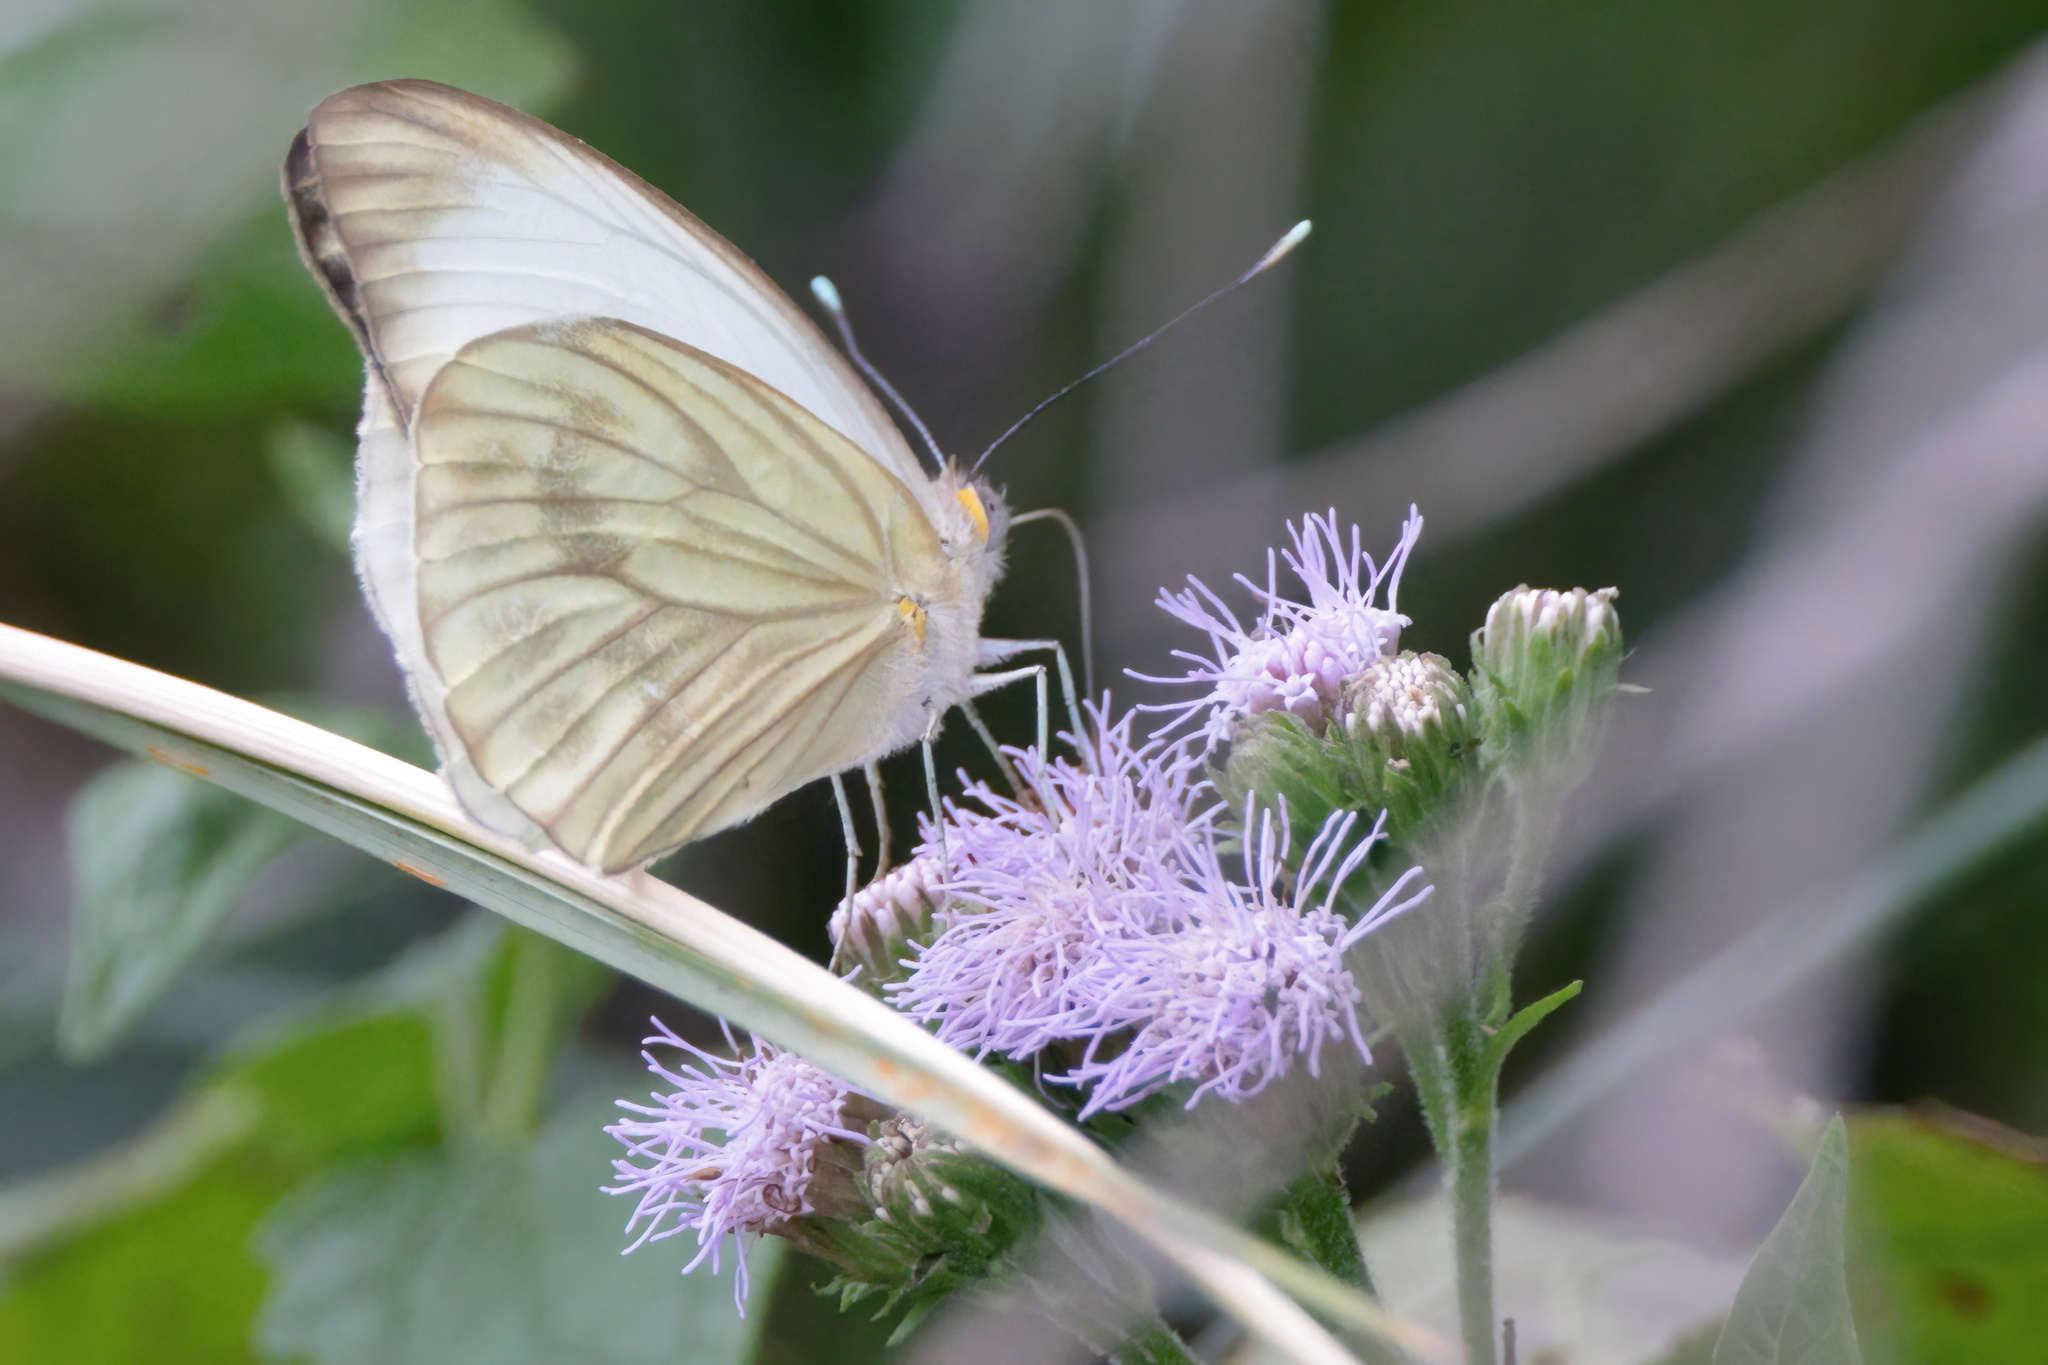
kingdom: Animalia
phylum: Arthropoda
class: Insecta
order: Lepidoptera
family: Pieridae
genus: Ascia
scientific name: Ascia monuste
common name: Great southern white
